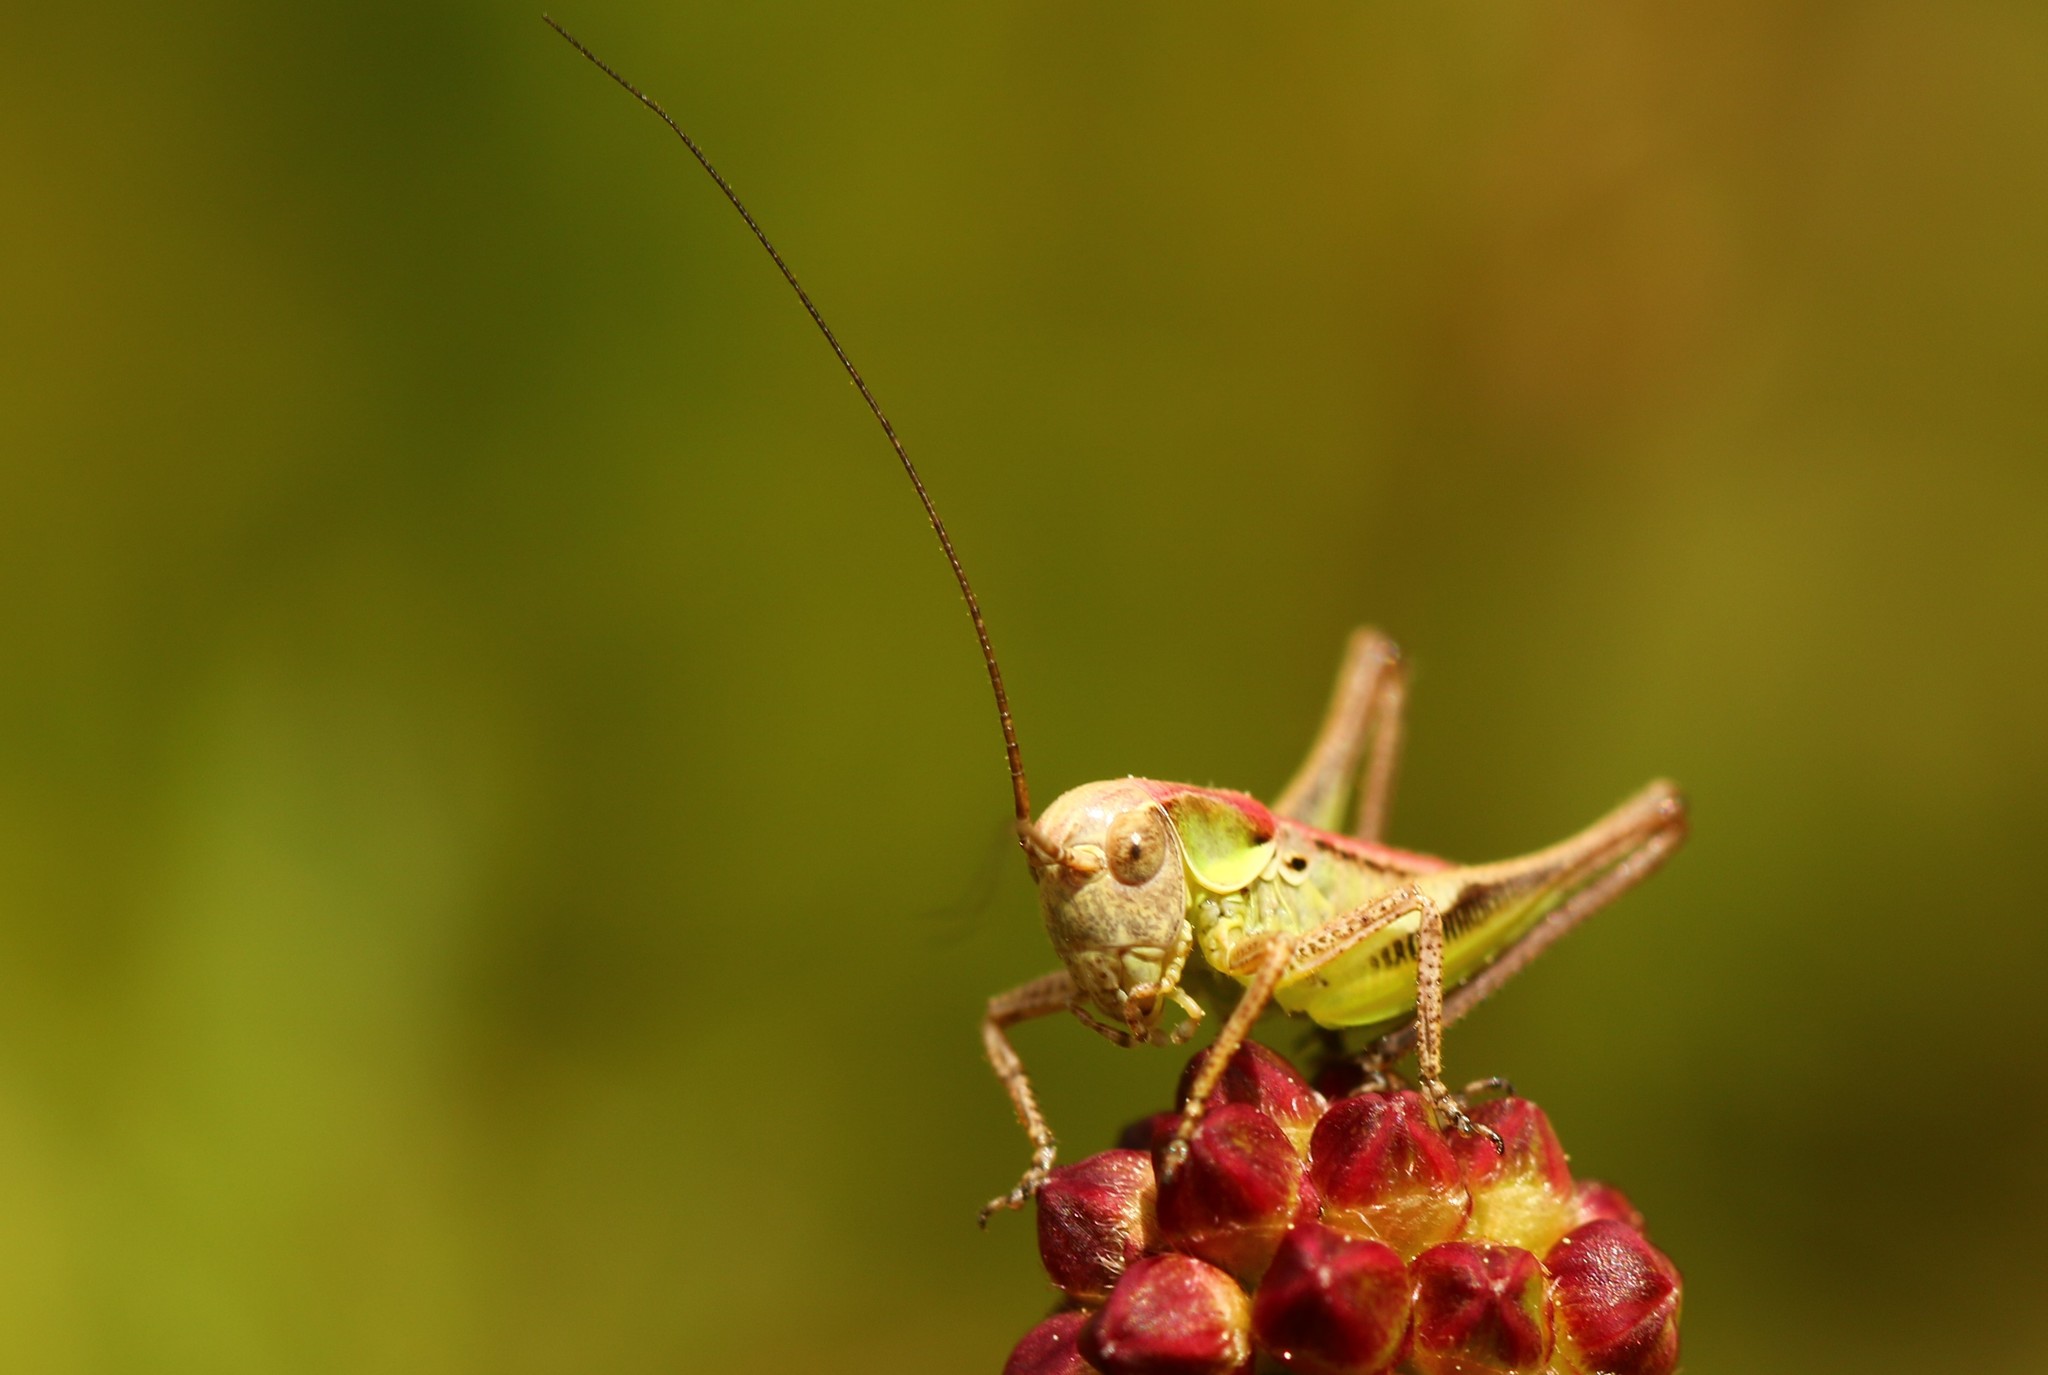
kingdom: Animalia
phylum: Arthropoda
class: Insecta
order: Orthoptera
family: Tettigoniidae
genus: Platycleis
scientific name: Platycleis grisea
